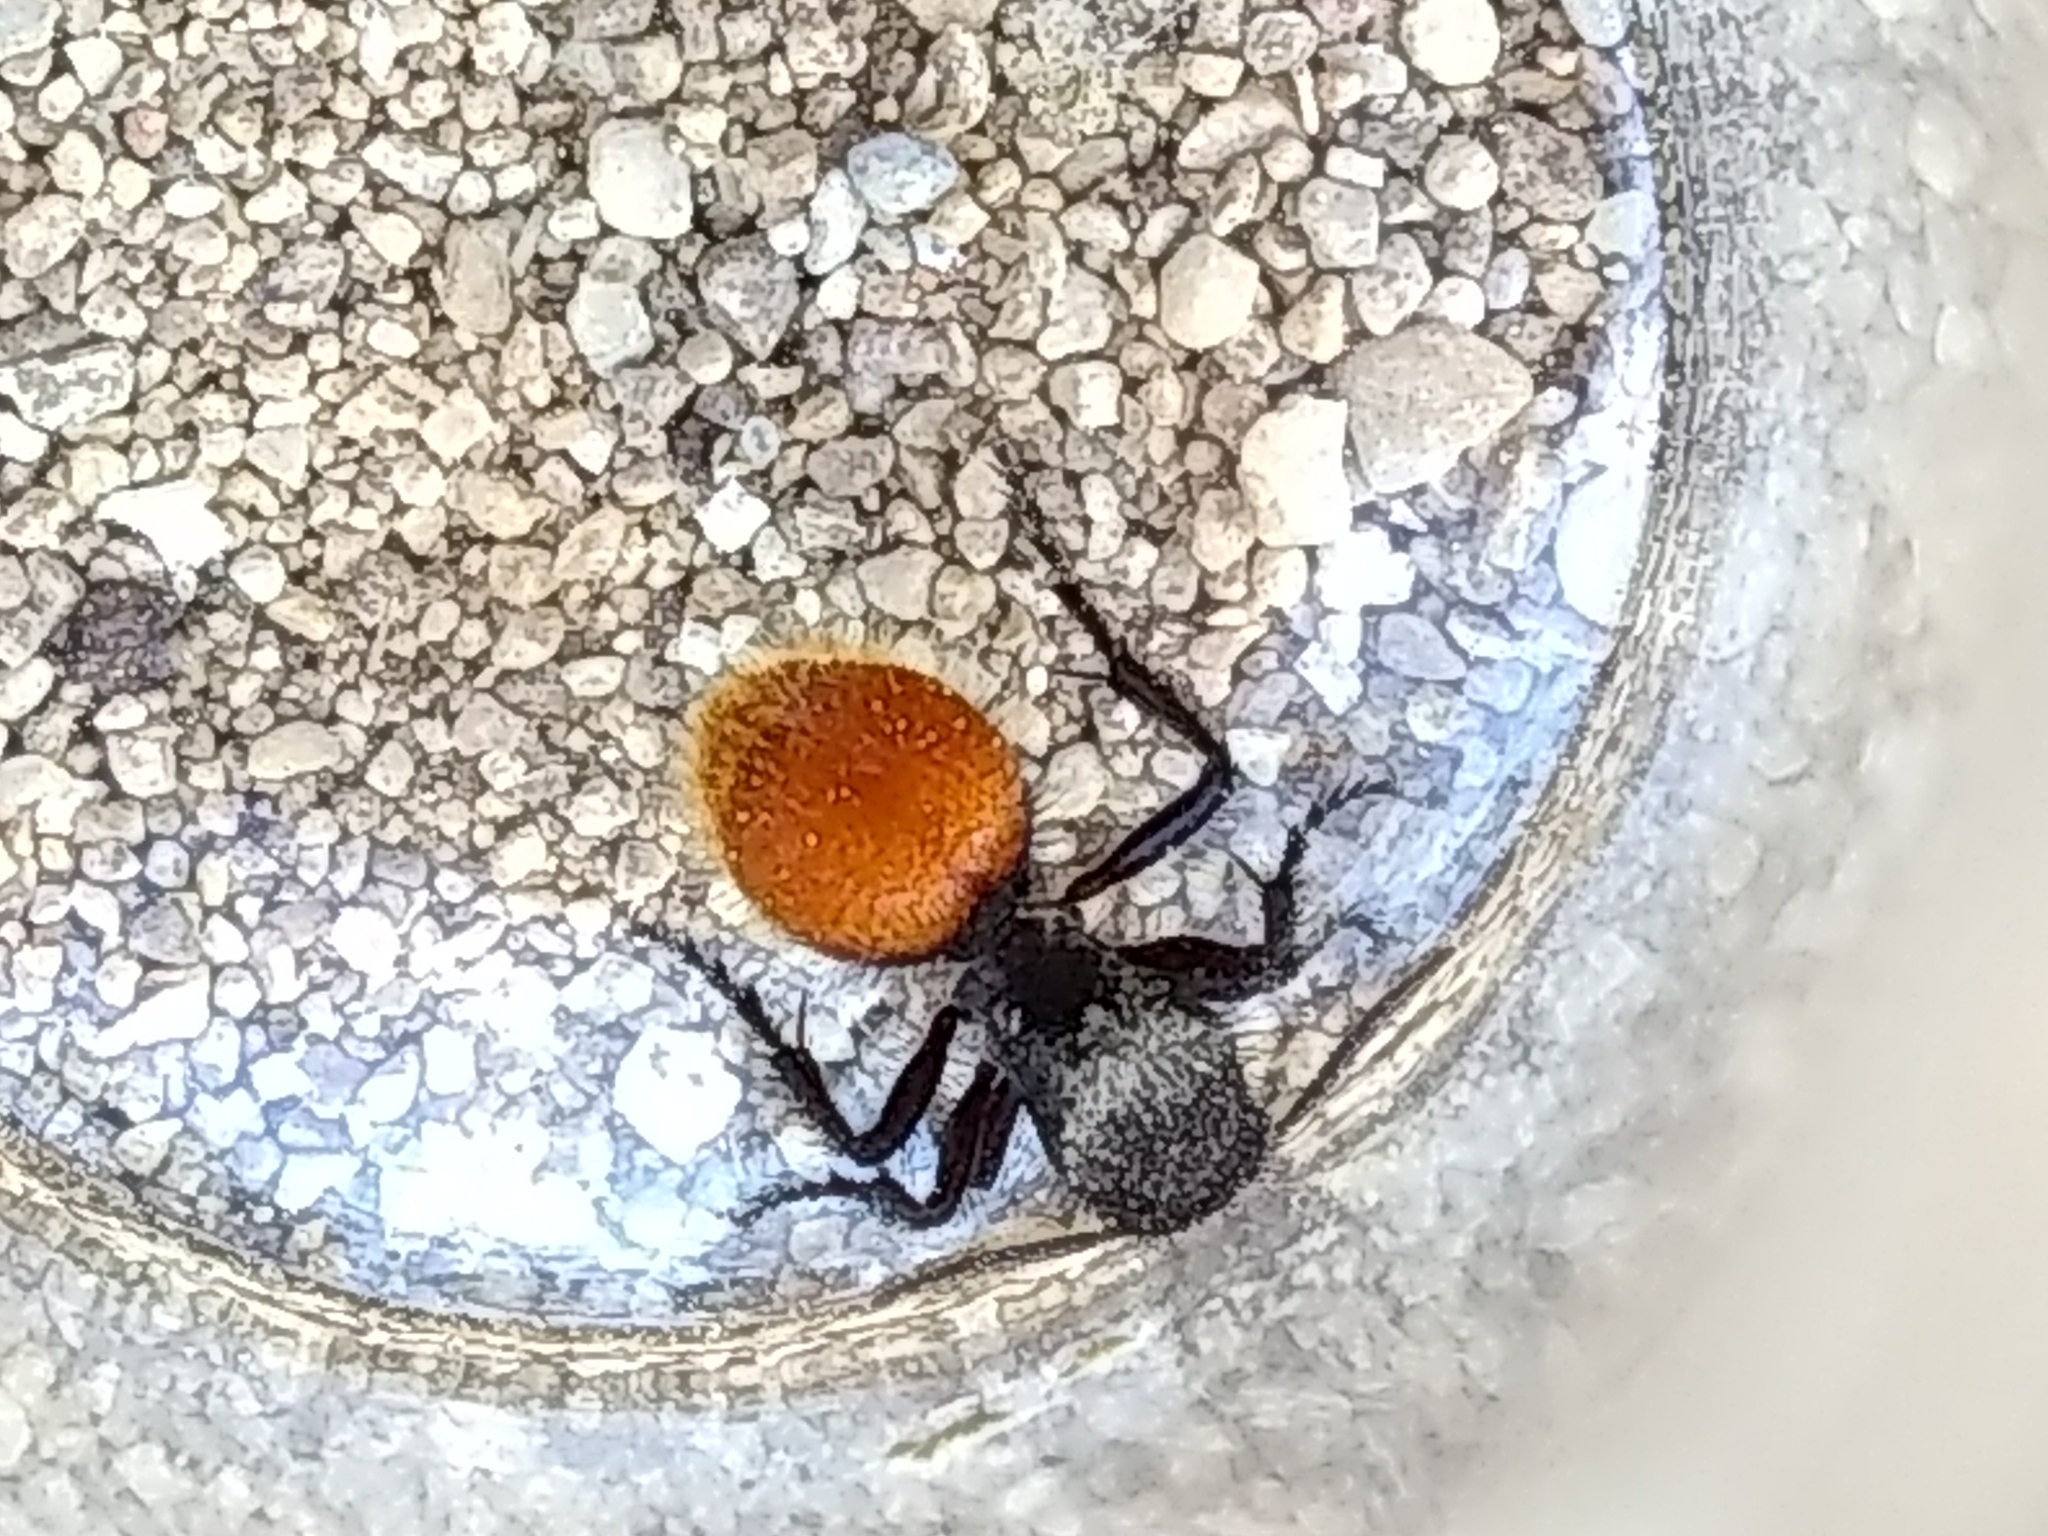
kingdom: Animalia
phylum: Arthropoda
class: Insecta
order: Hymenoptera
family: Mutillidae
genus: Dasymutilla
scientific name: Dasymutilla
